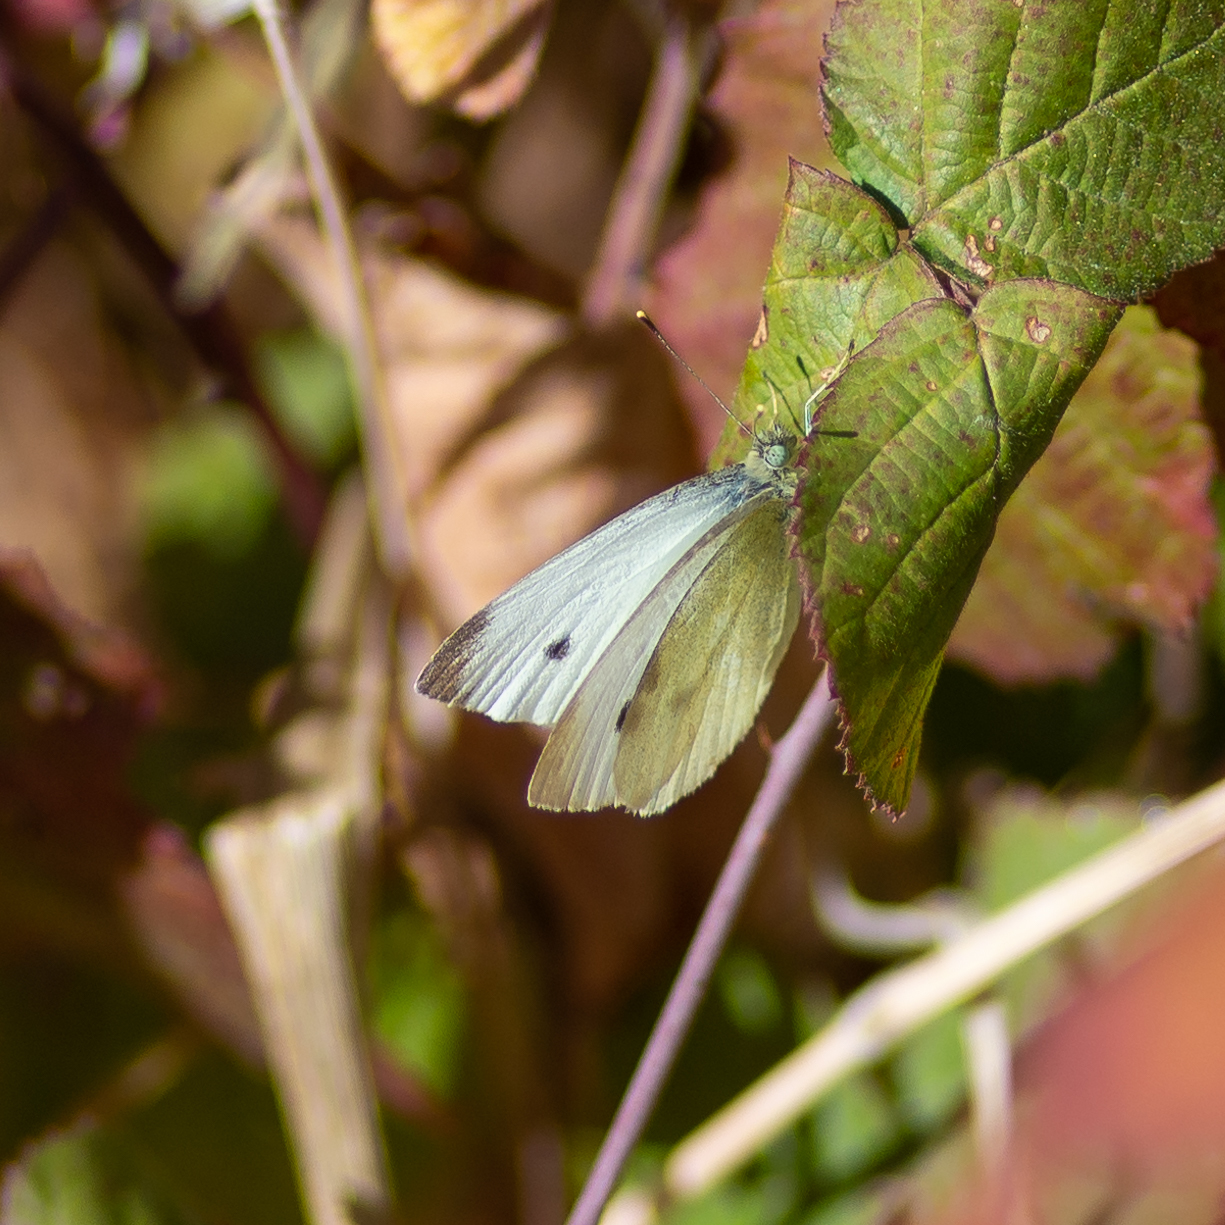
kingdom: Animalia
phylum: Arthropoda
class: Insecta
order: Lepidoptera
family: Pieridae
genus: Pieris
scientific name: Pieris rapae
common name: Small white
